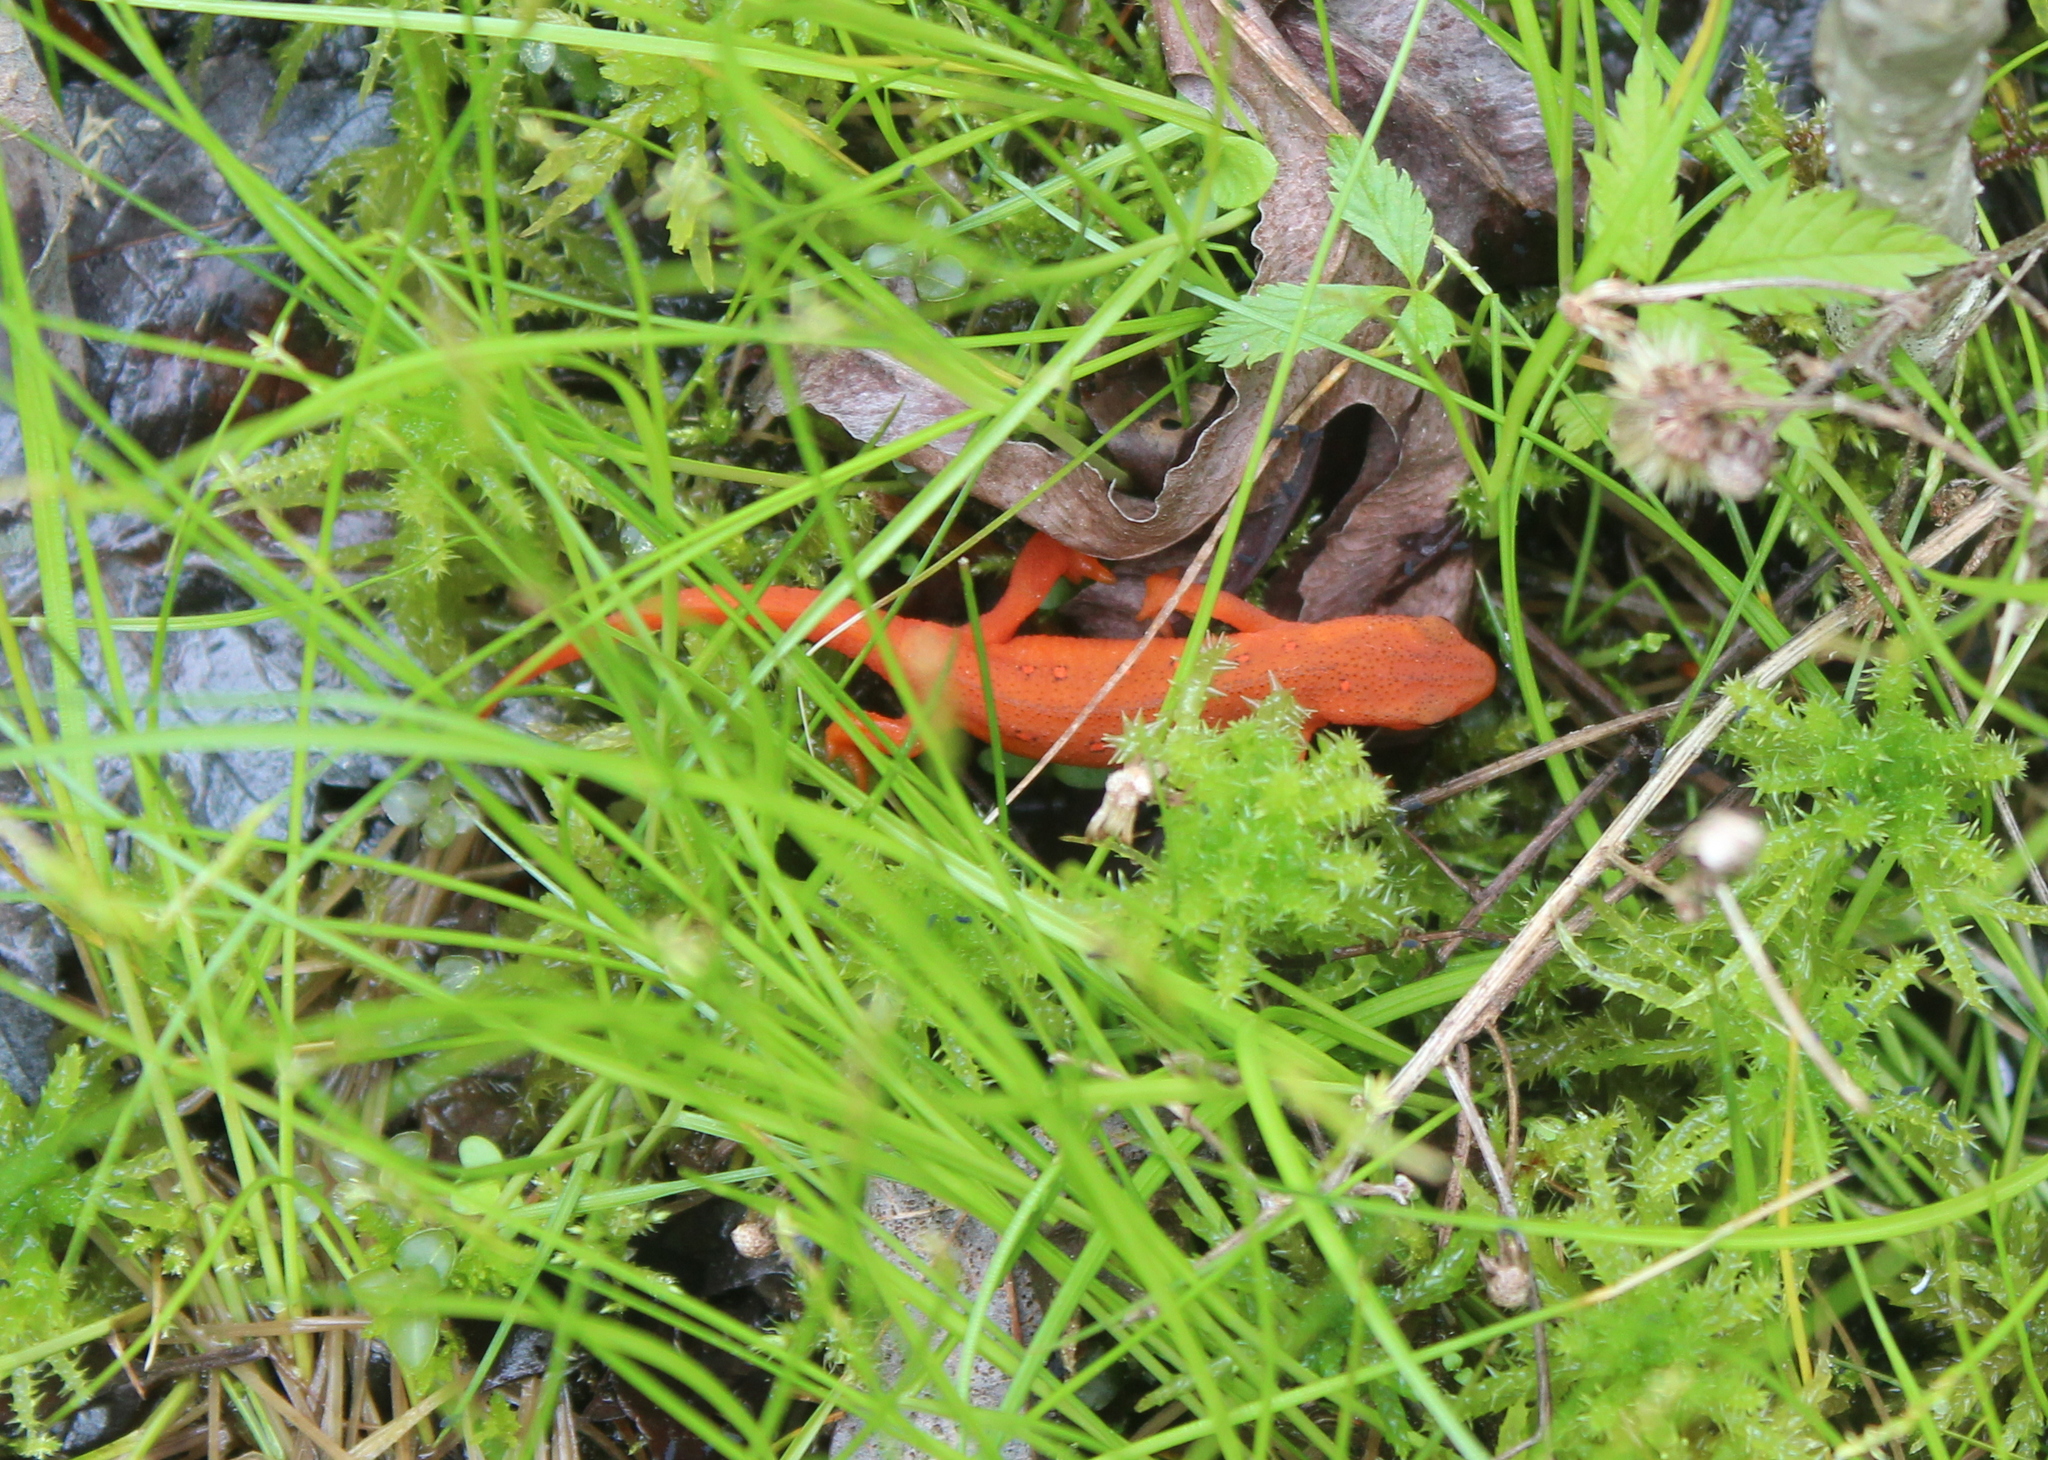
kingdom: Animalia
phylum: Chordata
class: Amphibia
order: Caudata
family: Salamandridae
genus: Notophthalmus
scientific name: Notophthalmus viridescens
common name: Eastern newt
